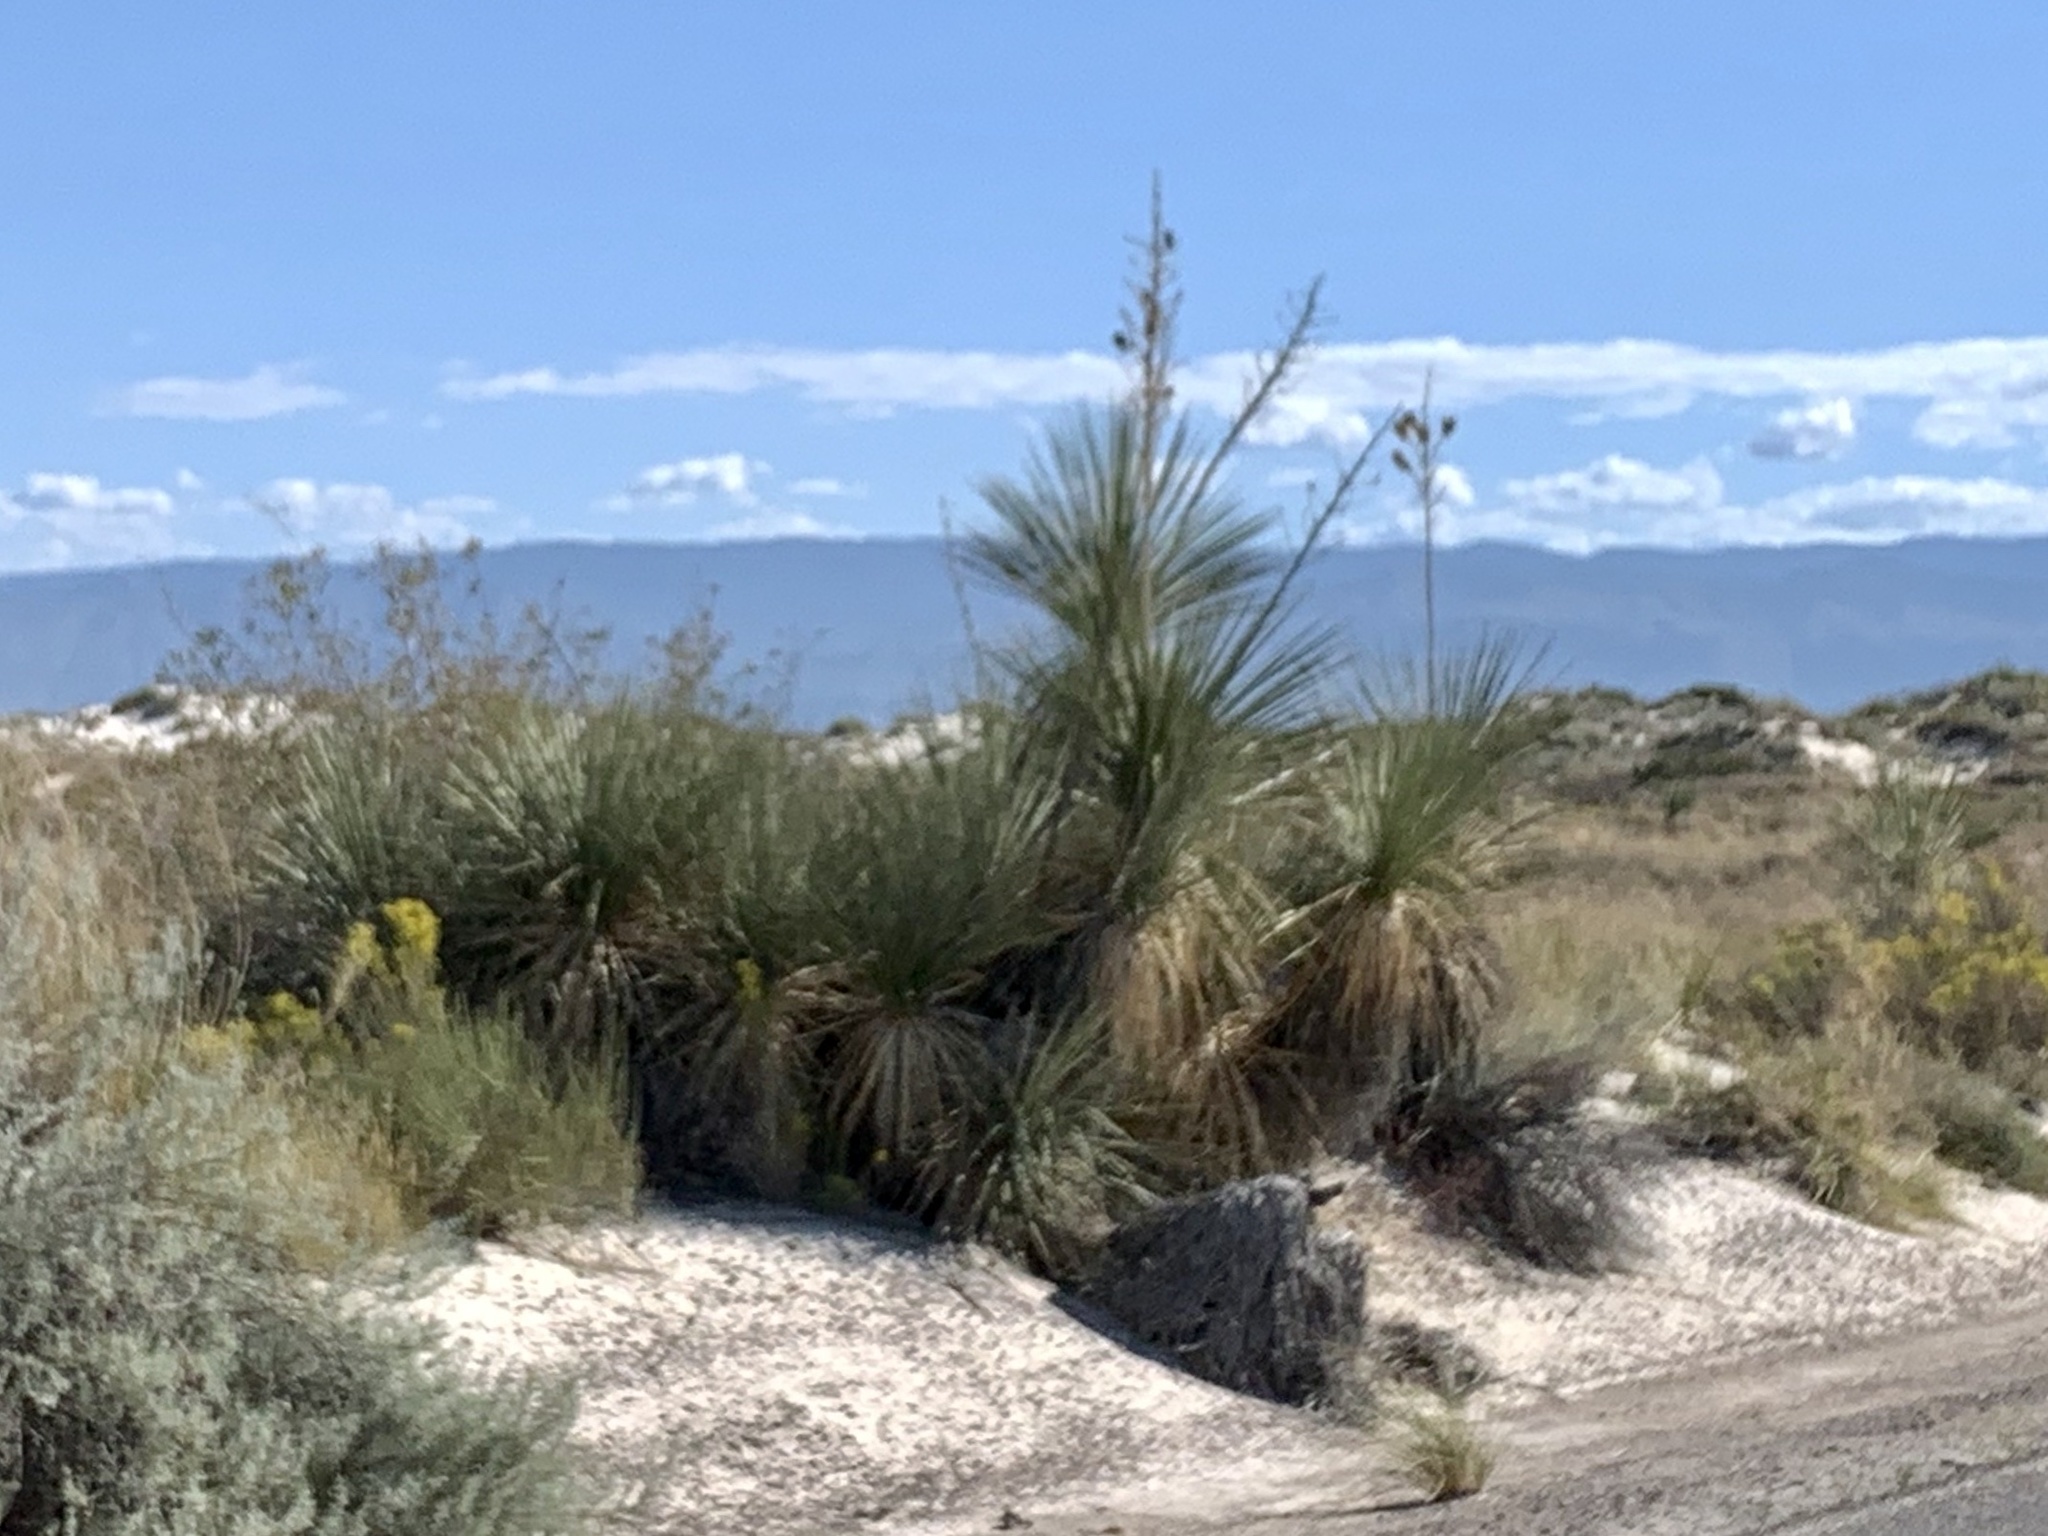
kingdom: Plantae
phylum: Tracheophyta
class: Liliopsida
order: Asparagales
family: Asparagaceae
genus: Yucca
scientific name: Yucca elata
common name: Palmella
